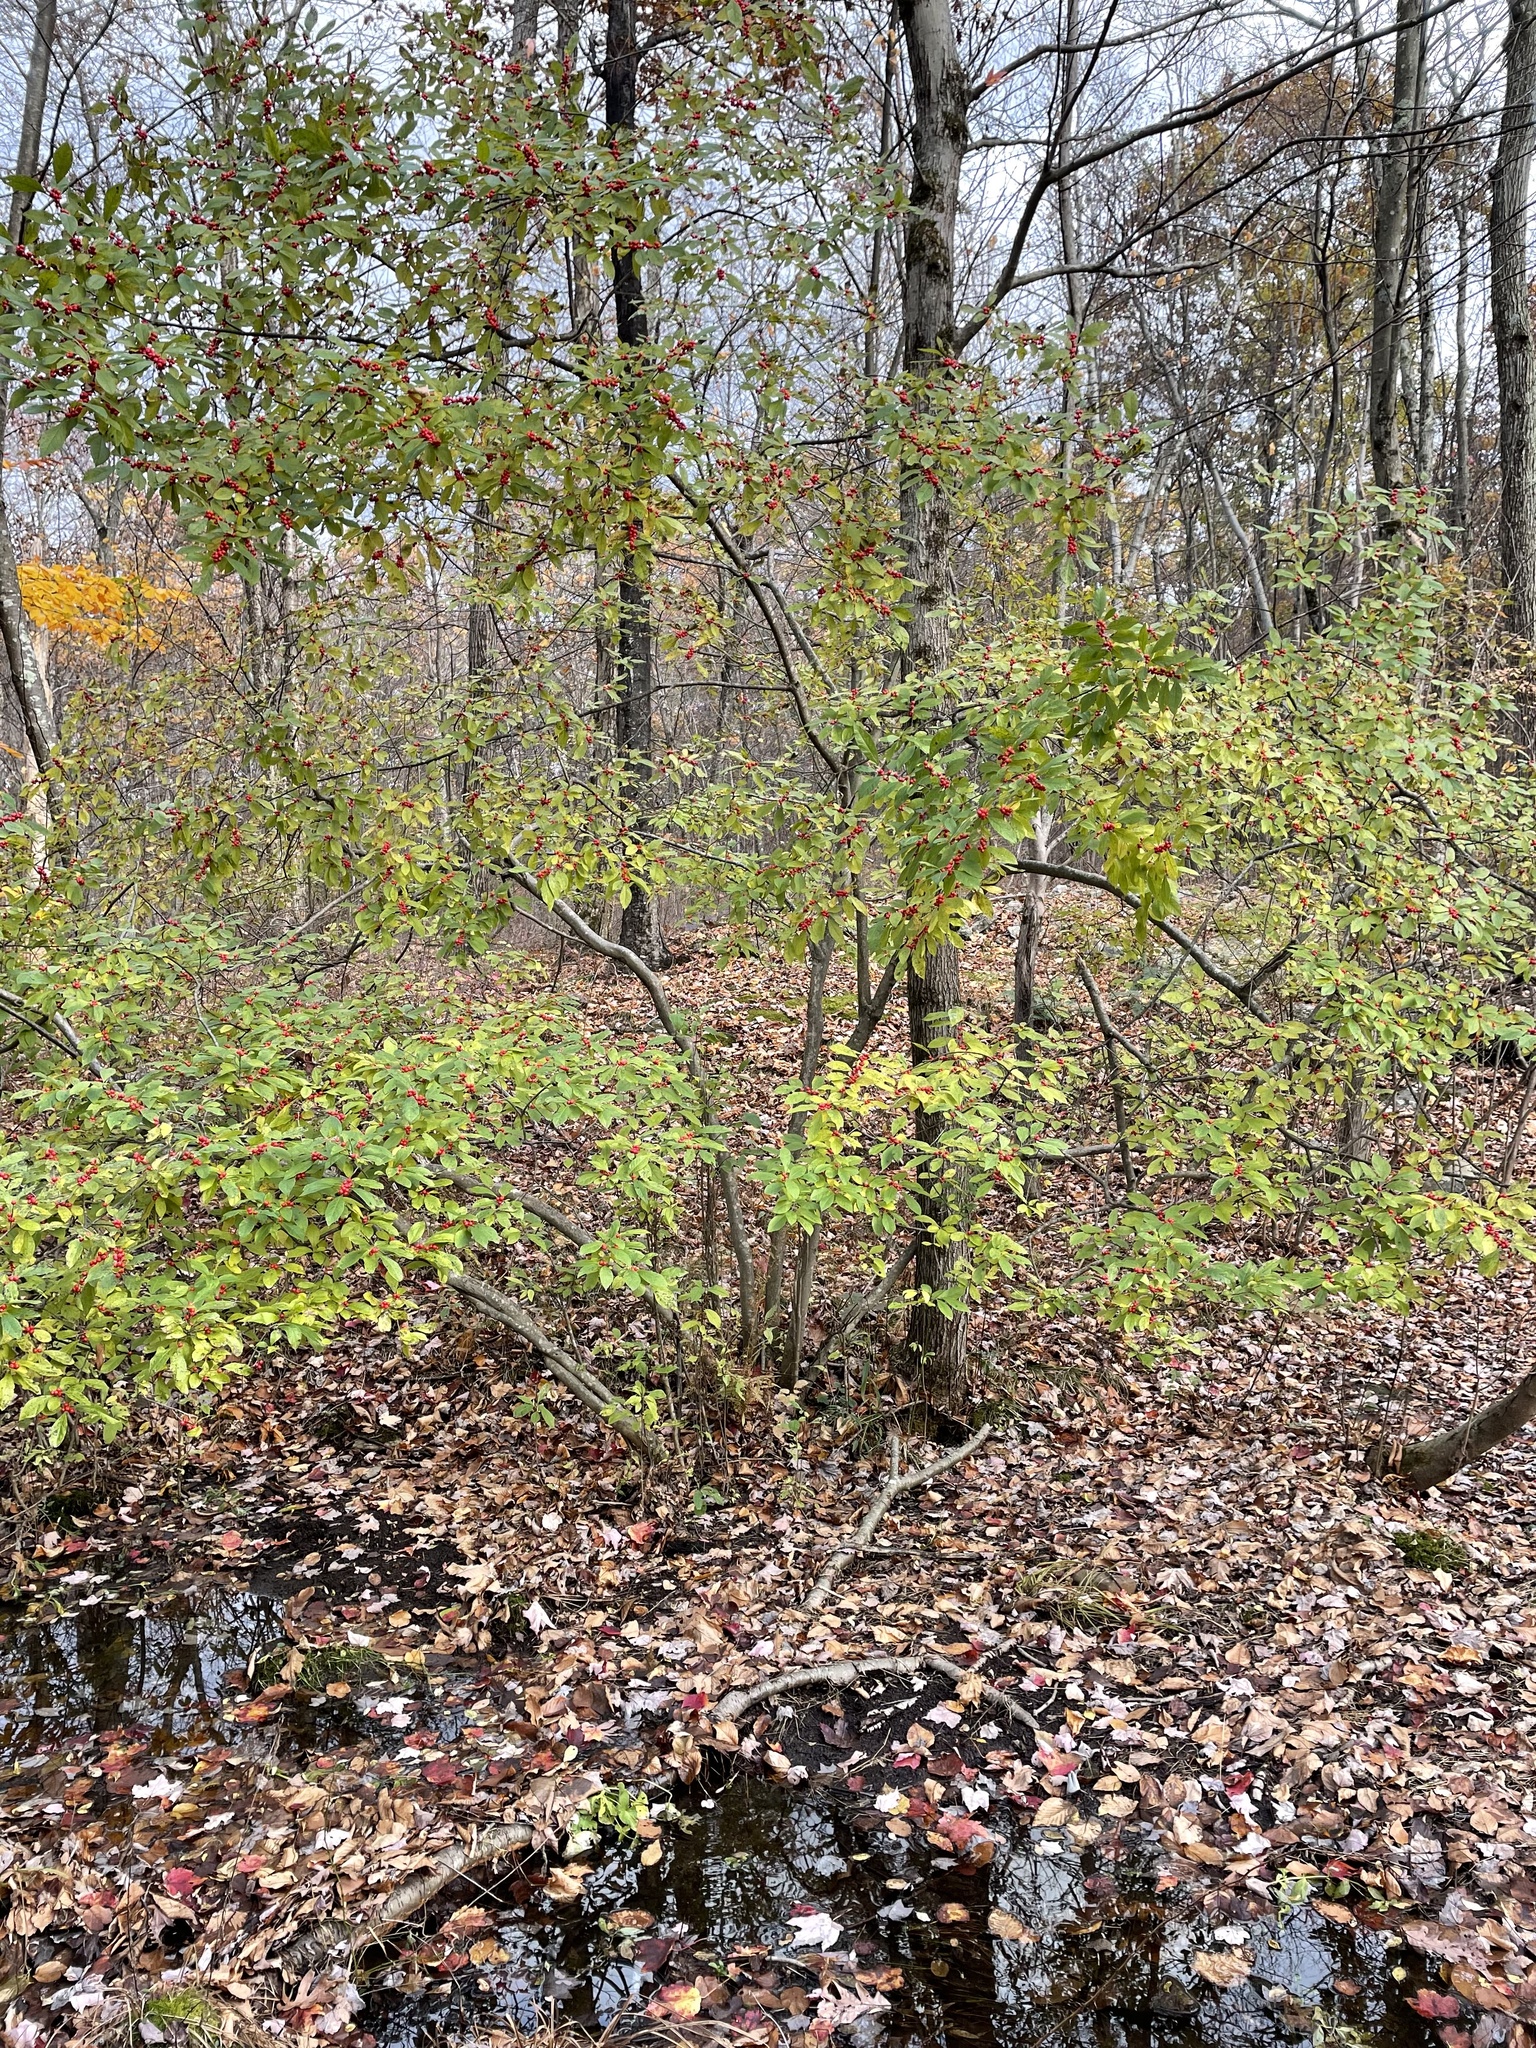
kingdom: Plantae
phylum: Tracheophyta
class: Magnoliopsida
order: Aquifoliales
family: Aquifoliaceae
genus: Ilex
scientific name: Ilex verticillata
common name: Virginia winterberry
